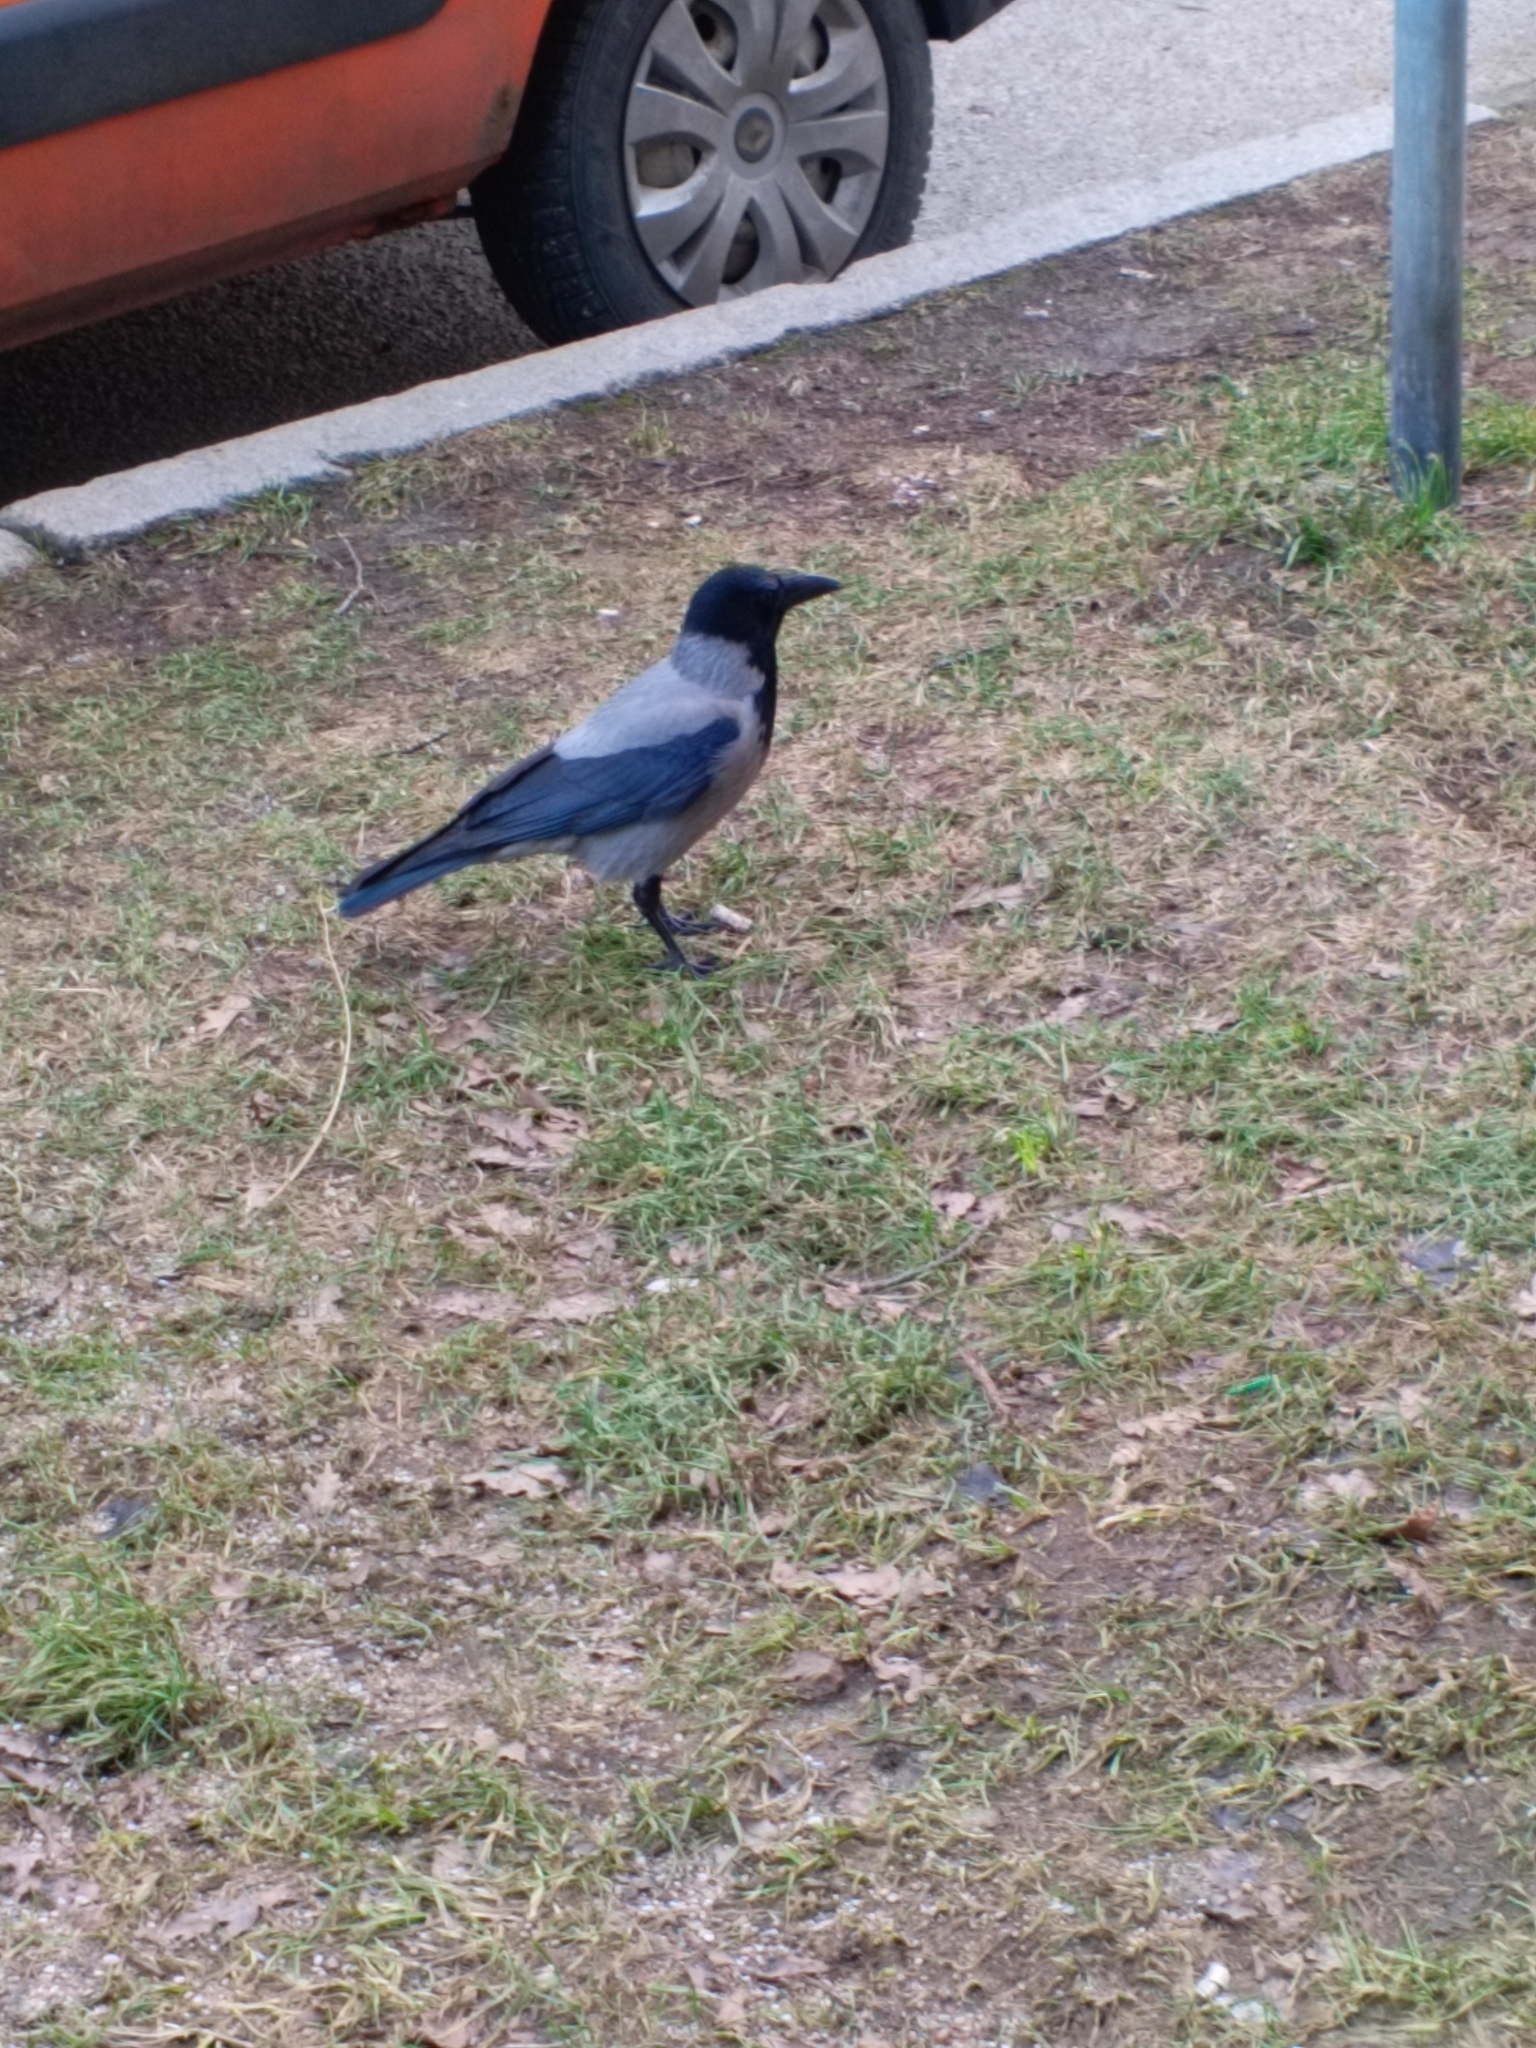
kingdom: Animalia
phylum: Chordata
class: Aves
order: Passeriformes
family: Corvidae
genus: Corvus
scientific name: Corvus cornix
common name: Hooded crow
